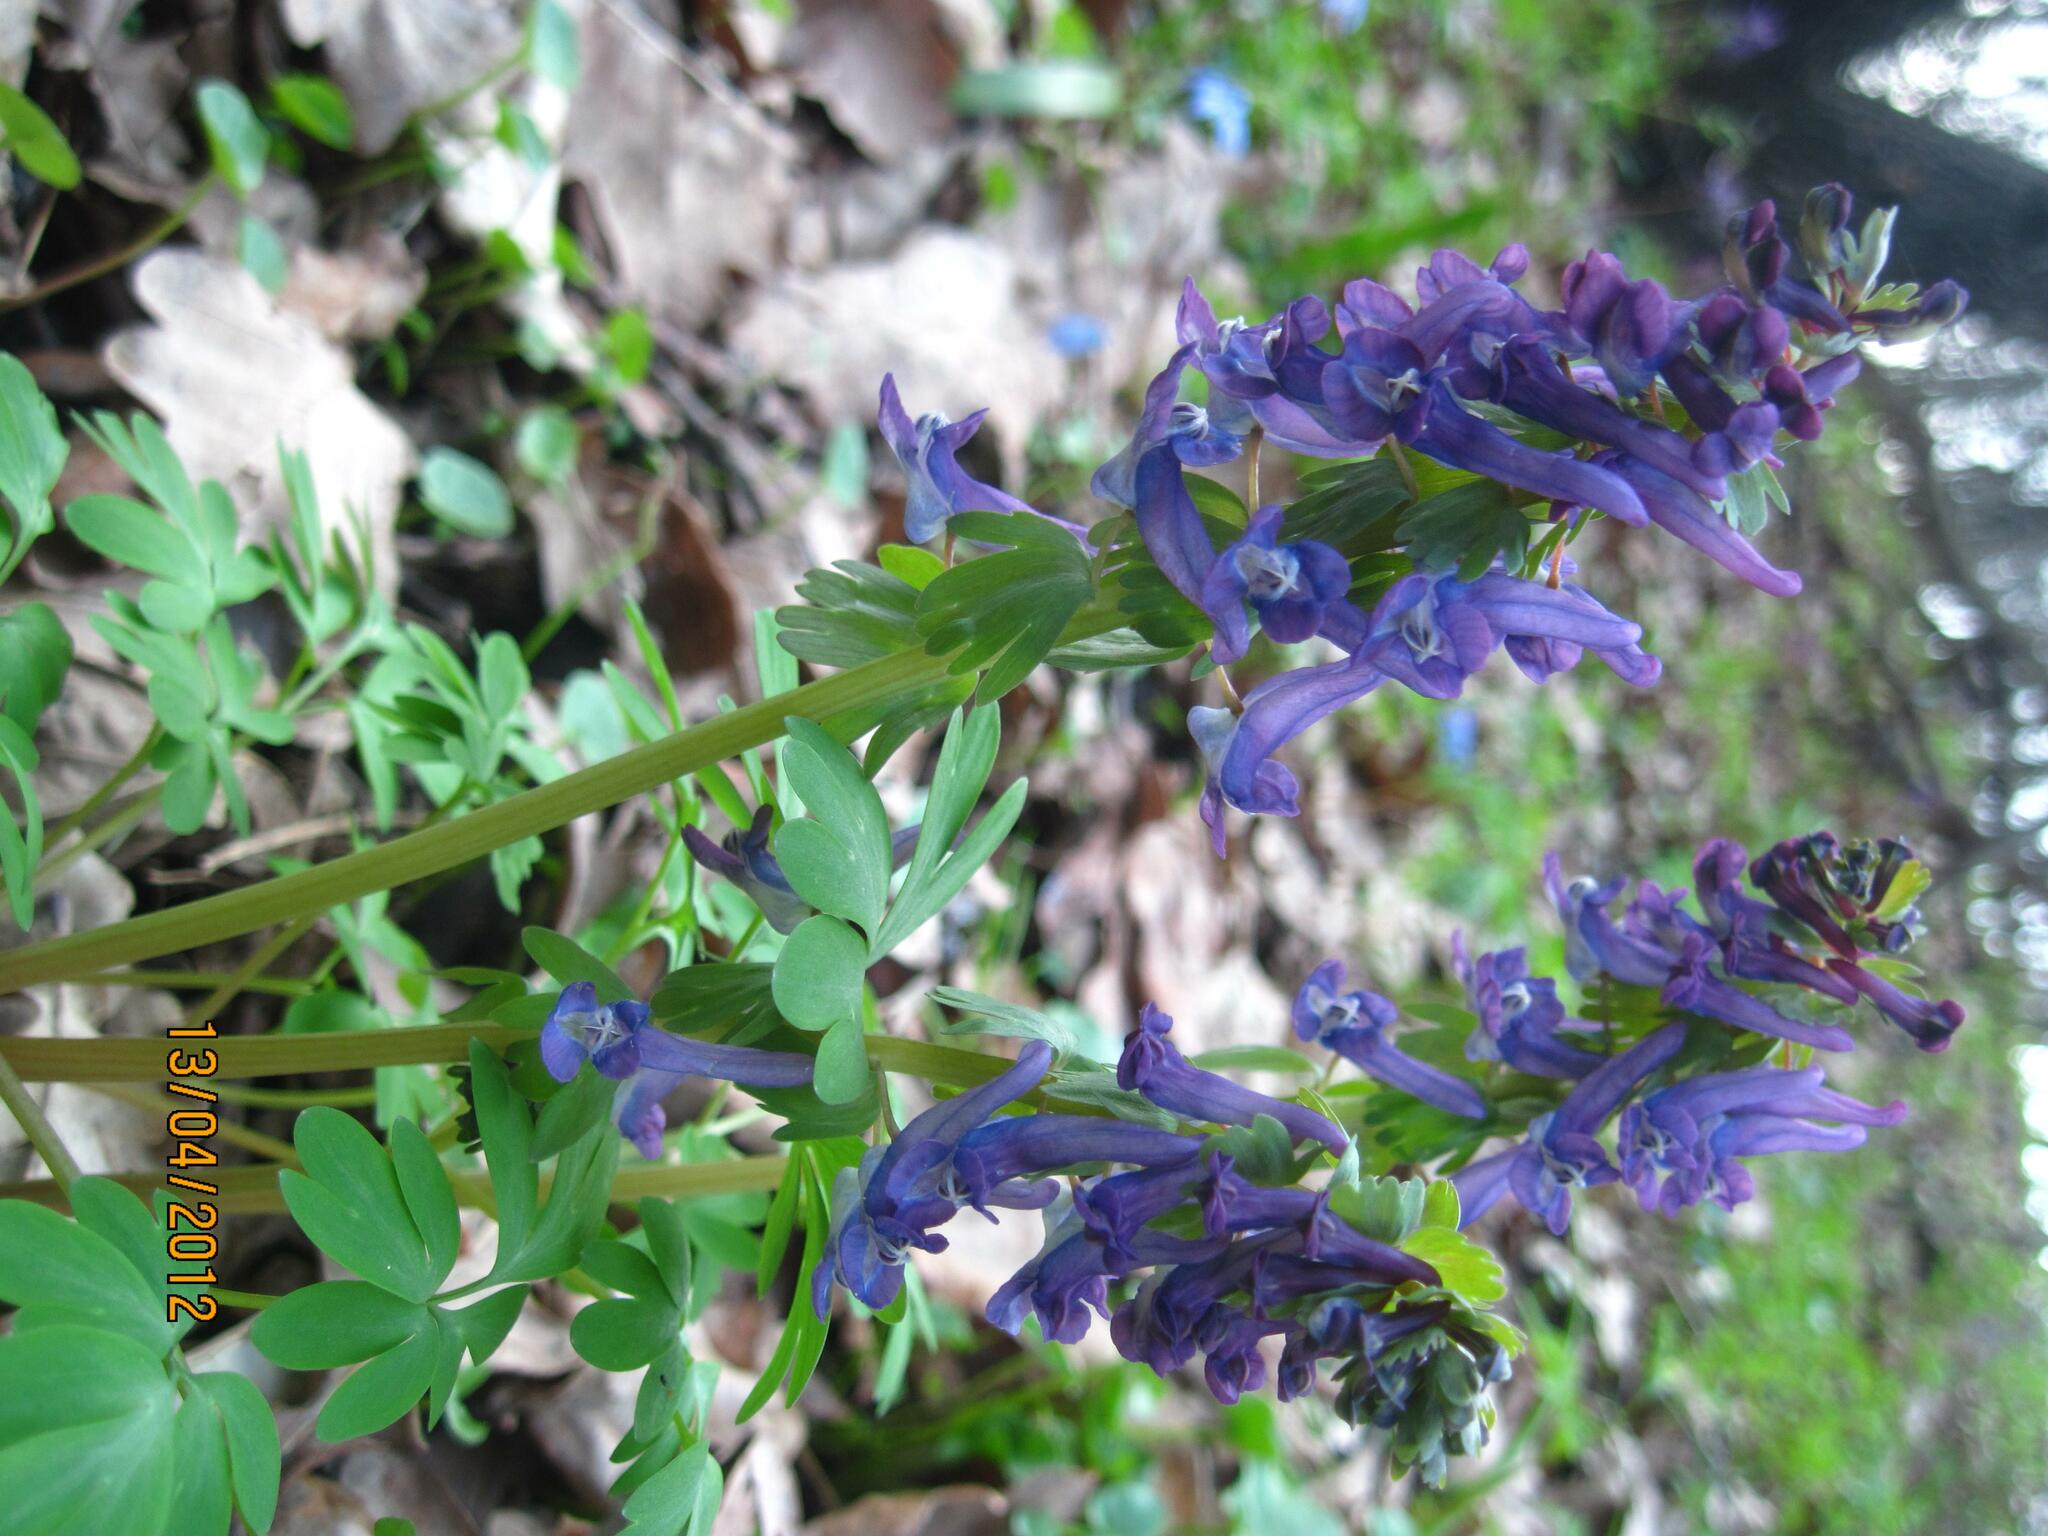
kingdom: Plantae
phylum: Tracheophyta
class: Magnoliopsida
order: Ranunculales
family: Papaveraceae
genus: Corydalis
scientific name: Corydalis solida
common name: Bird-in-a-bush
